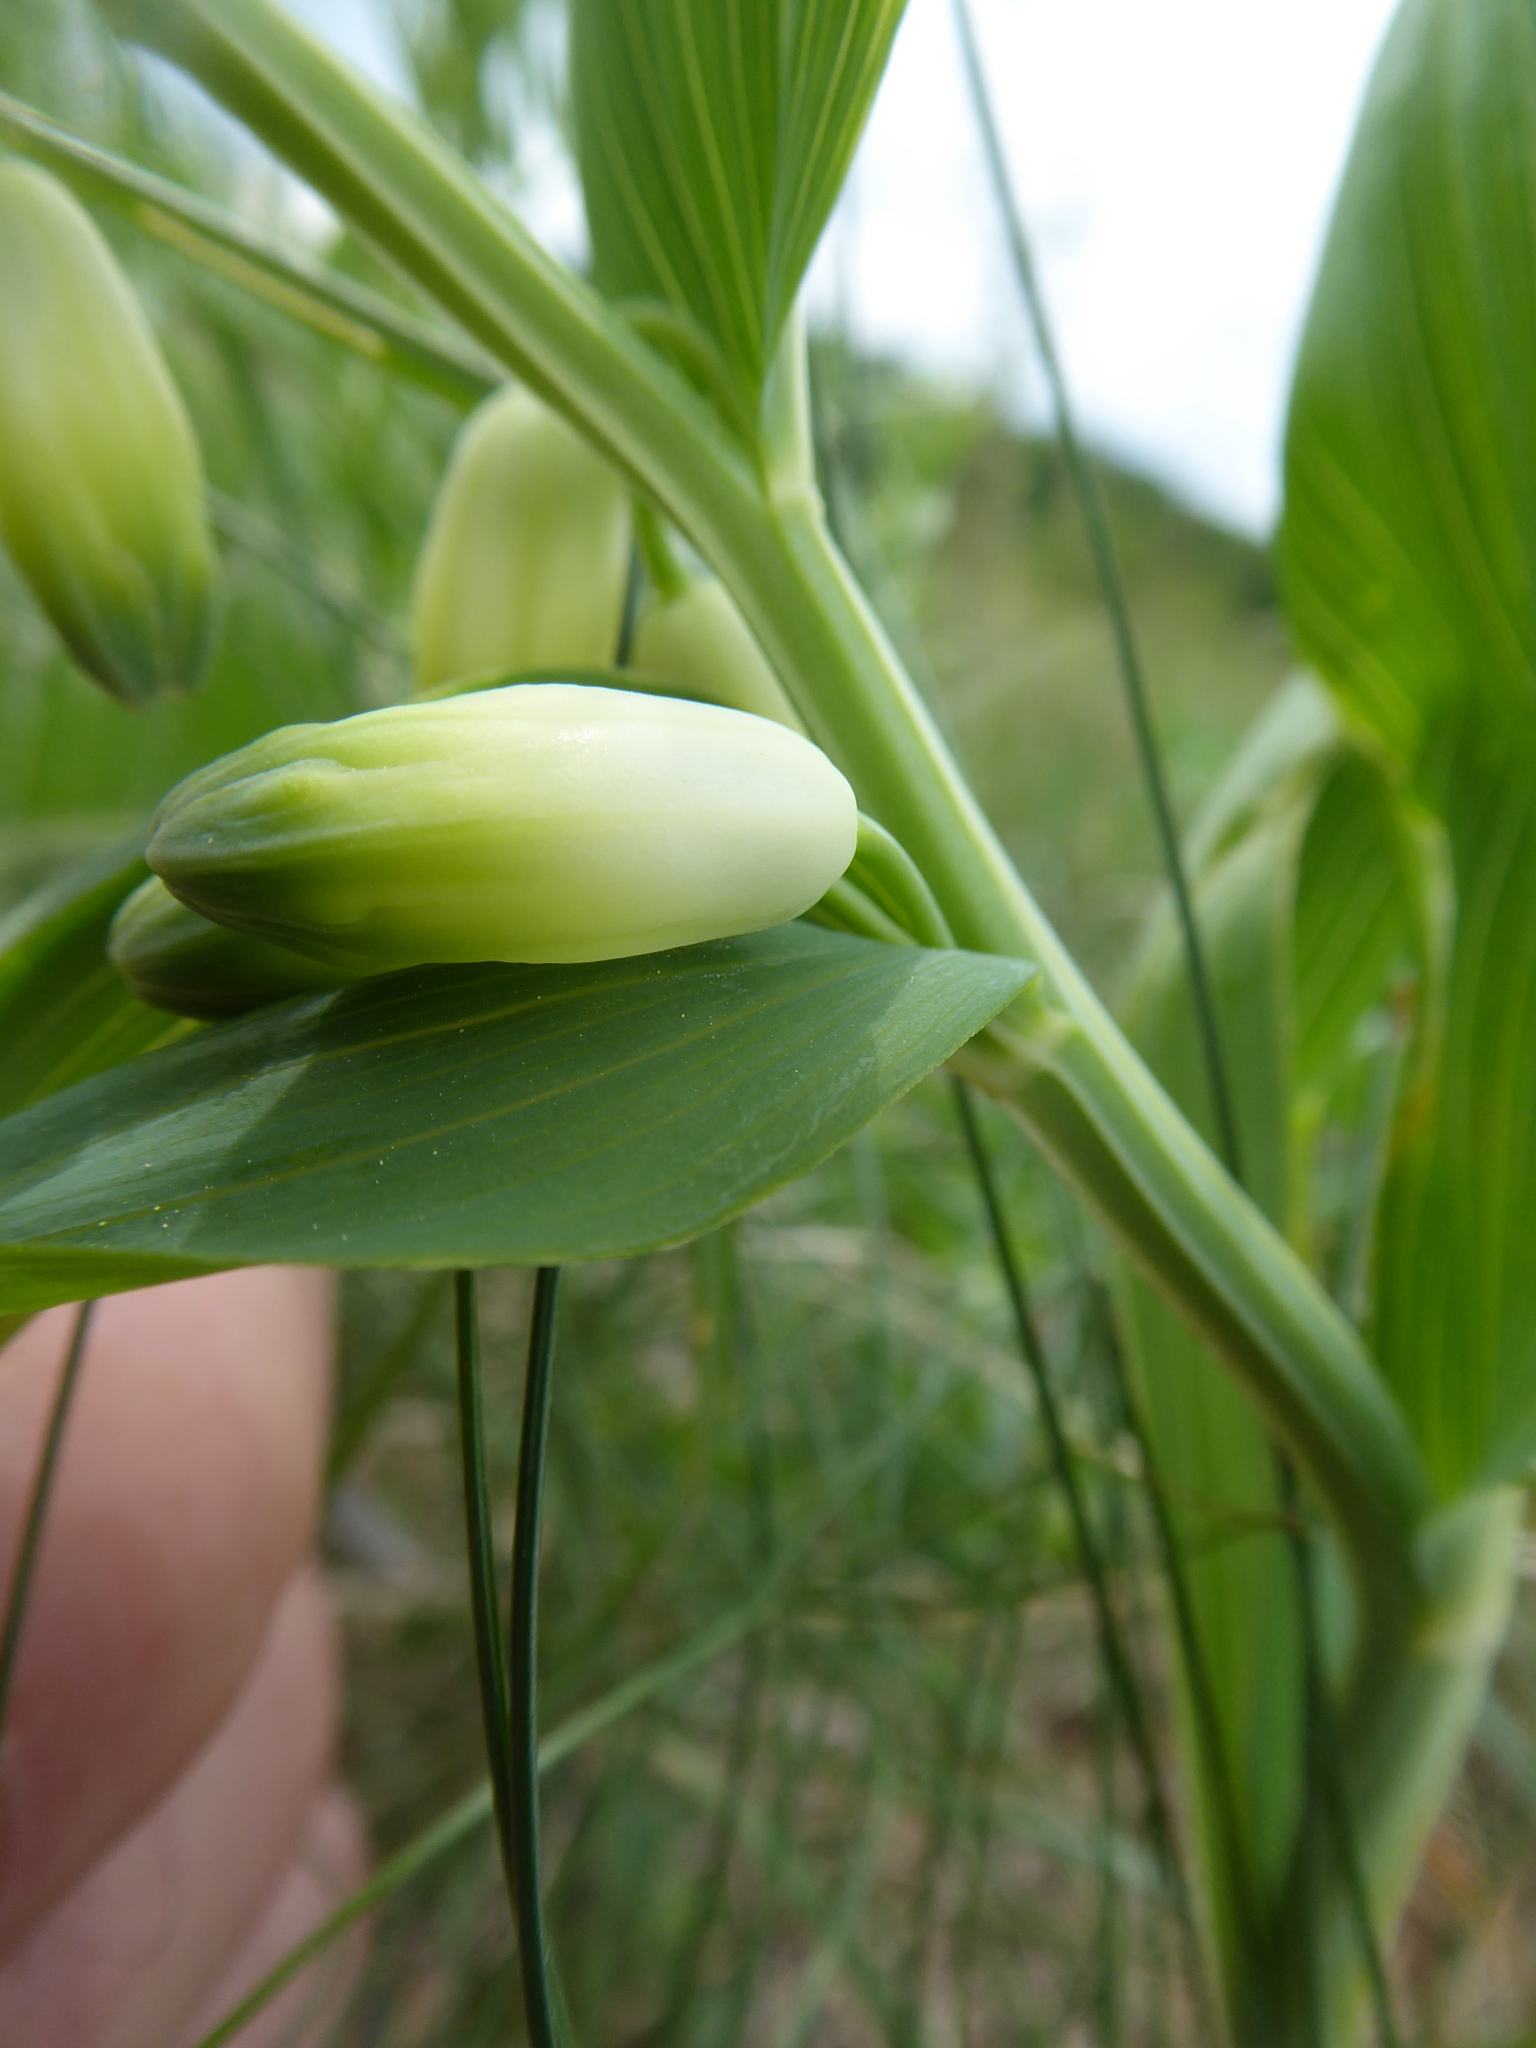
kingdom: Plantae
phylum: Tracheophyta
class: Liliopsida
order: Asparagales
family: Asparagaceae
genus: Polygonatum
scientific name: Polygonatum odoratum
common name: Angular solomon's-seal
